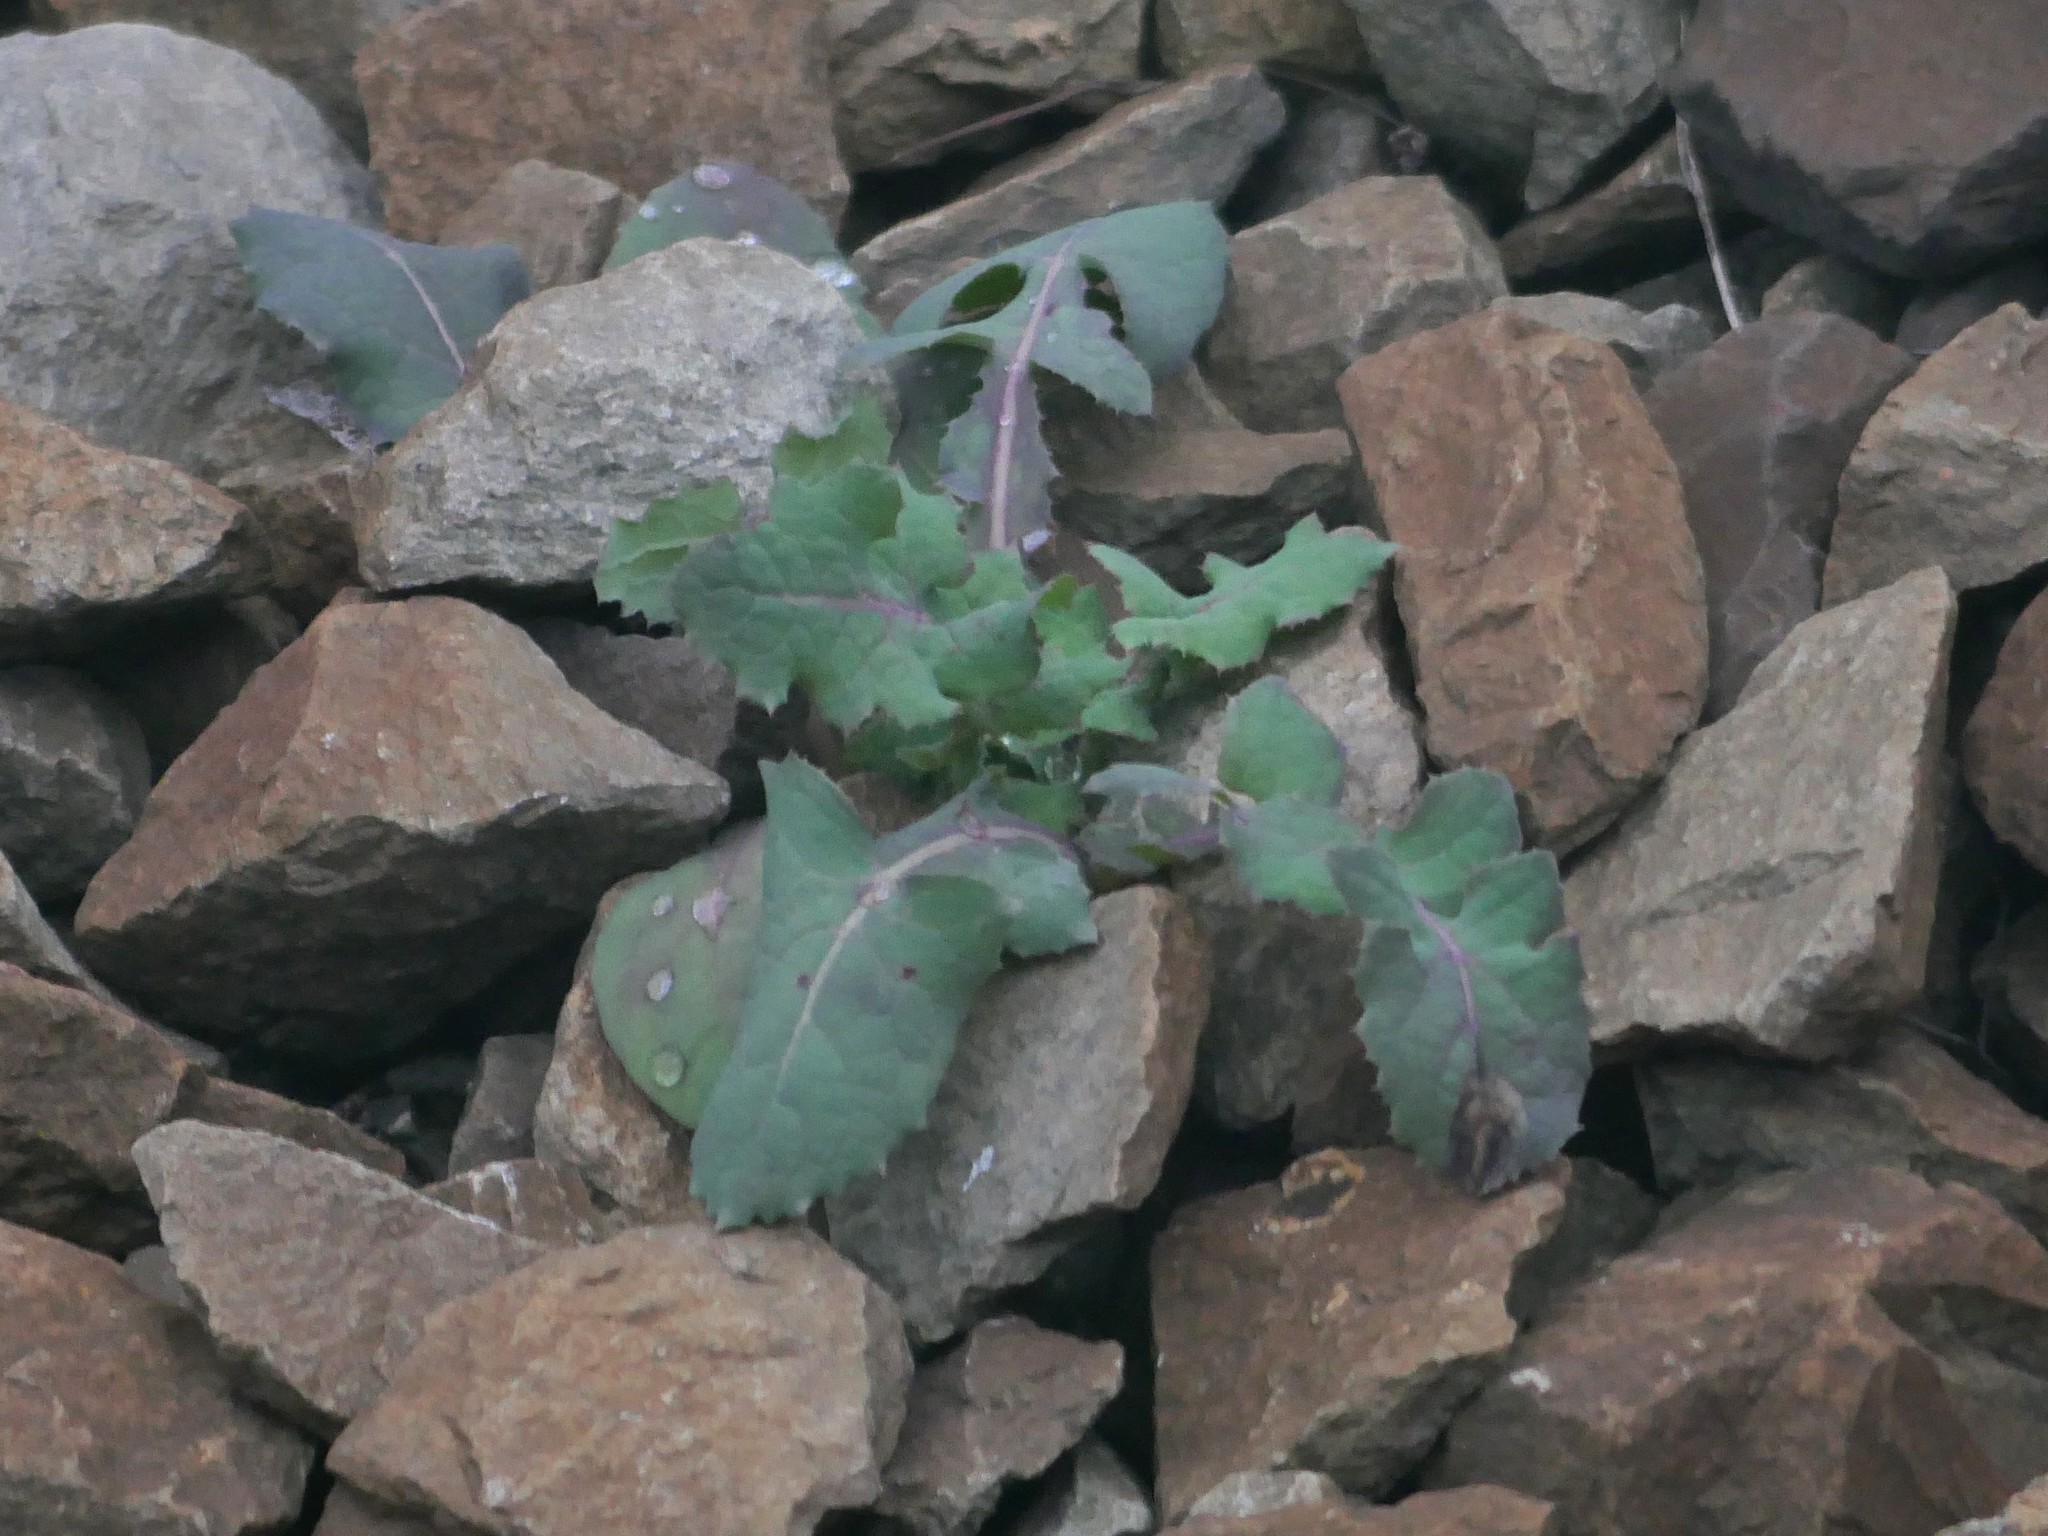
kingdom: Plantae
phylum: Tracheophyta
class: Magnoliopsida
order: Asterales
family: Asteraceae
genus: Sonchus
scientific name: Sonchus oleraceus
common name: Common sowthistle
